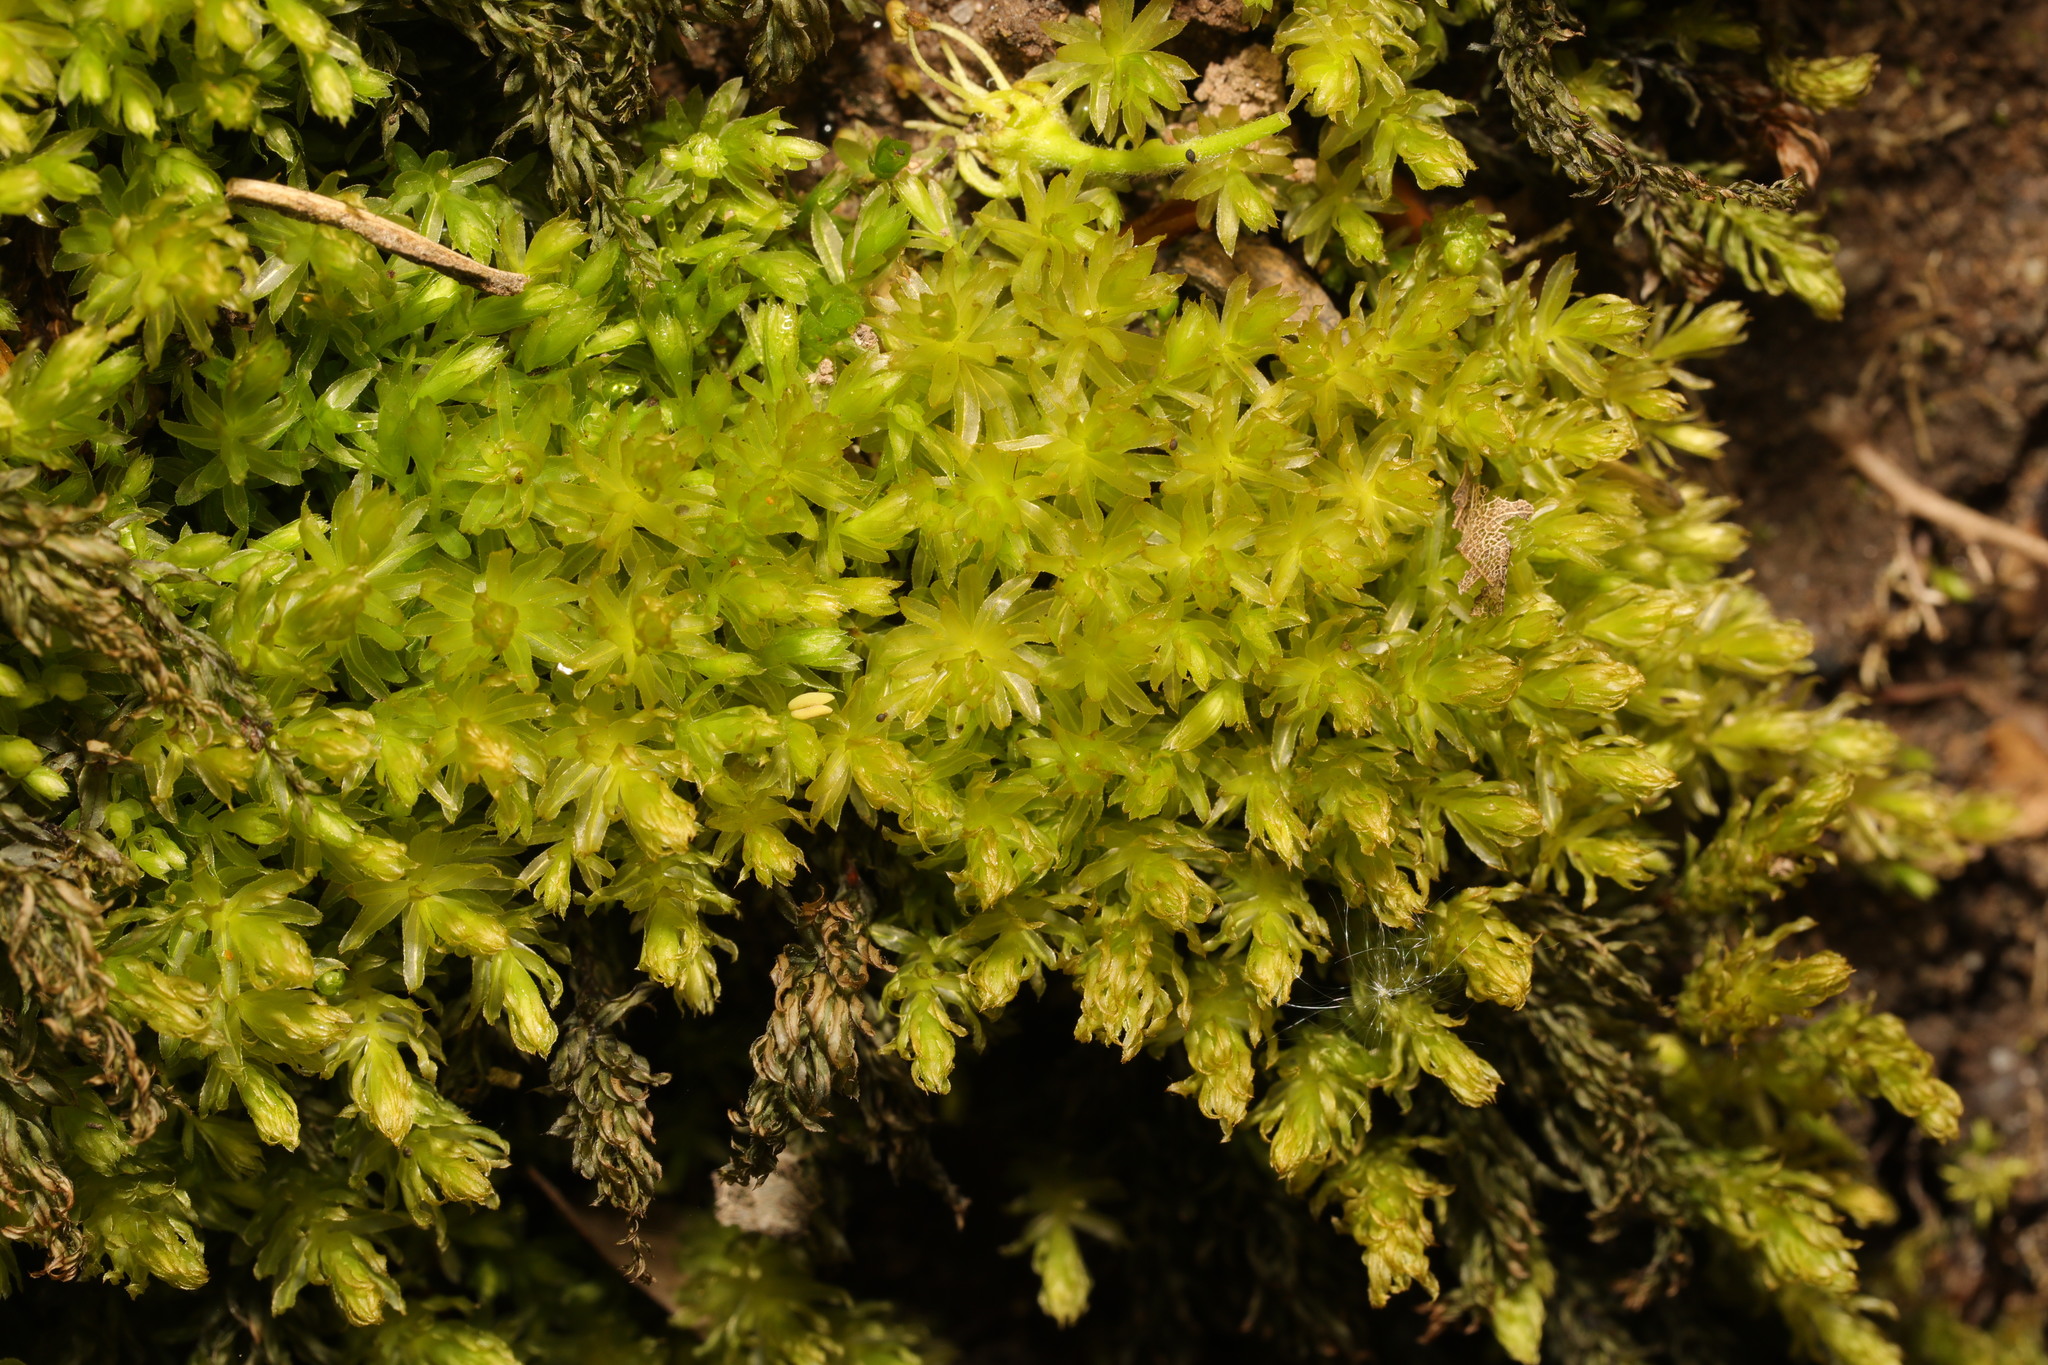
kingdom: Plantae
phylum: Bryophyta
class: Bryopsida
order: Bryales
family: Mniaceae
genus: Mnium
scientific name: Mnium hornum
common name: Swan's-neck leafy moss
